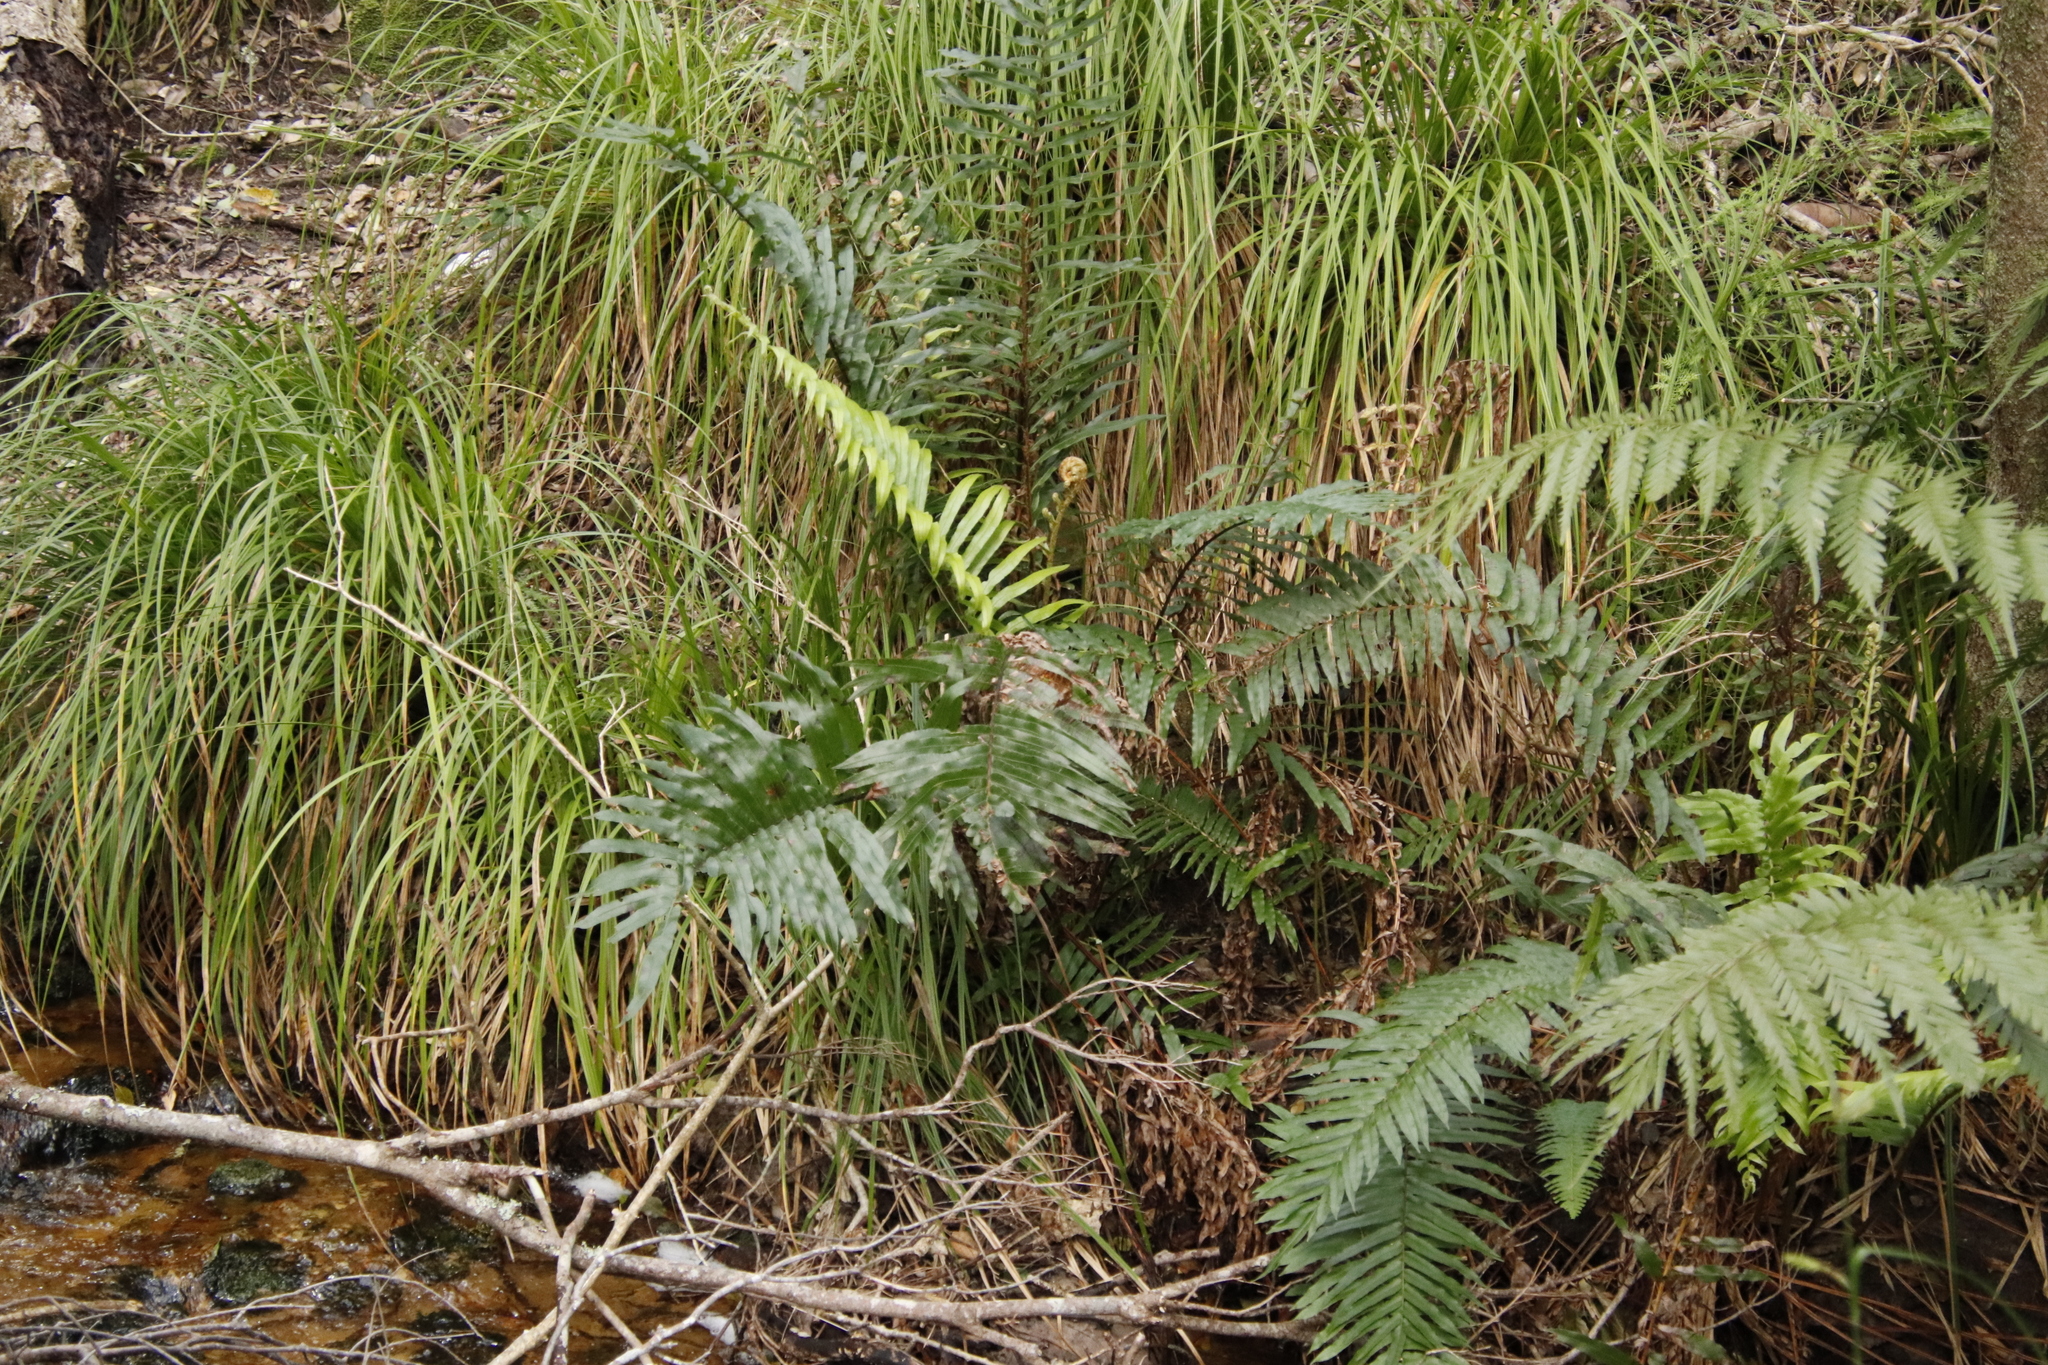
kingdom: Plantae
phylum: Tracheophyta
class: Polypodiopsida
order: Polypodiales
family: Blechnaceae
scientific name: Blechnaceae
